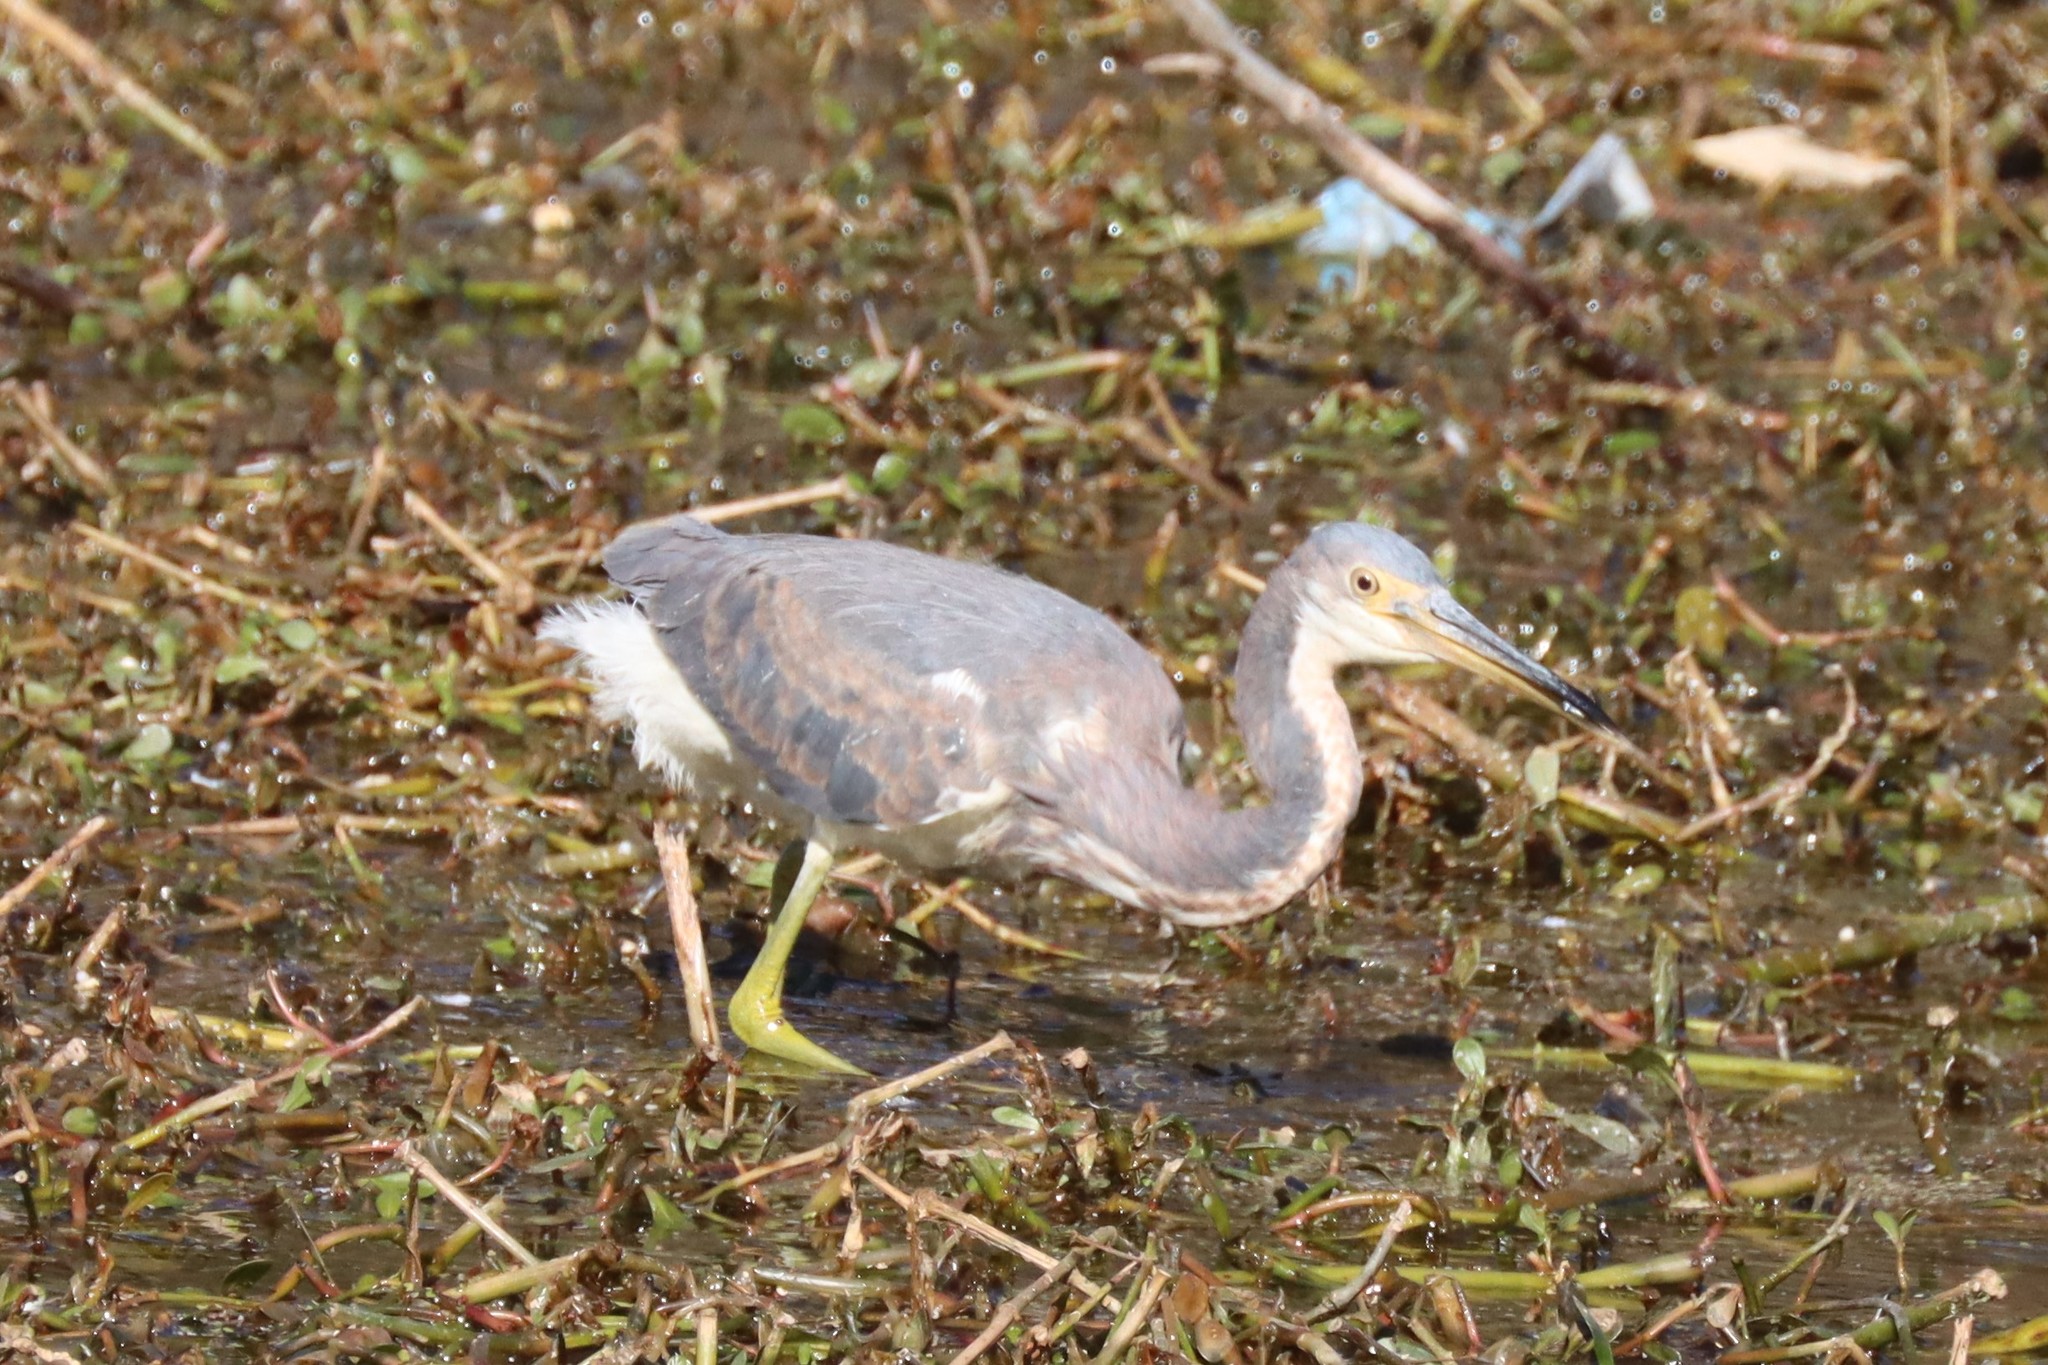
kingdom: Animalia
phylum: Chordata
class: Aves
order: Pelecaniformes
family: Ardeidae
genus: Egretta
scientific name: Egretta tricolor
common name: Tricolored heron
